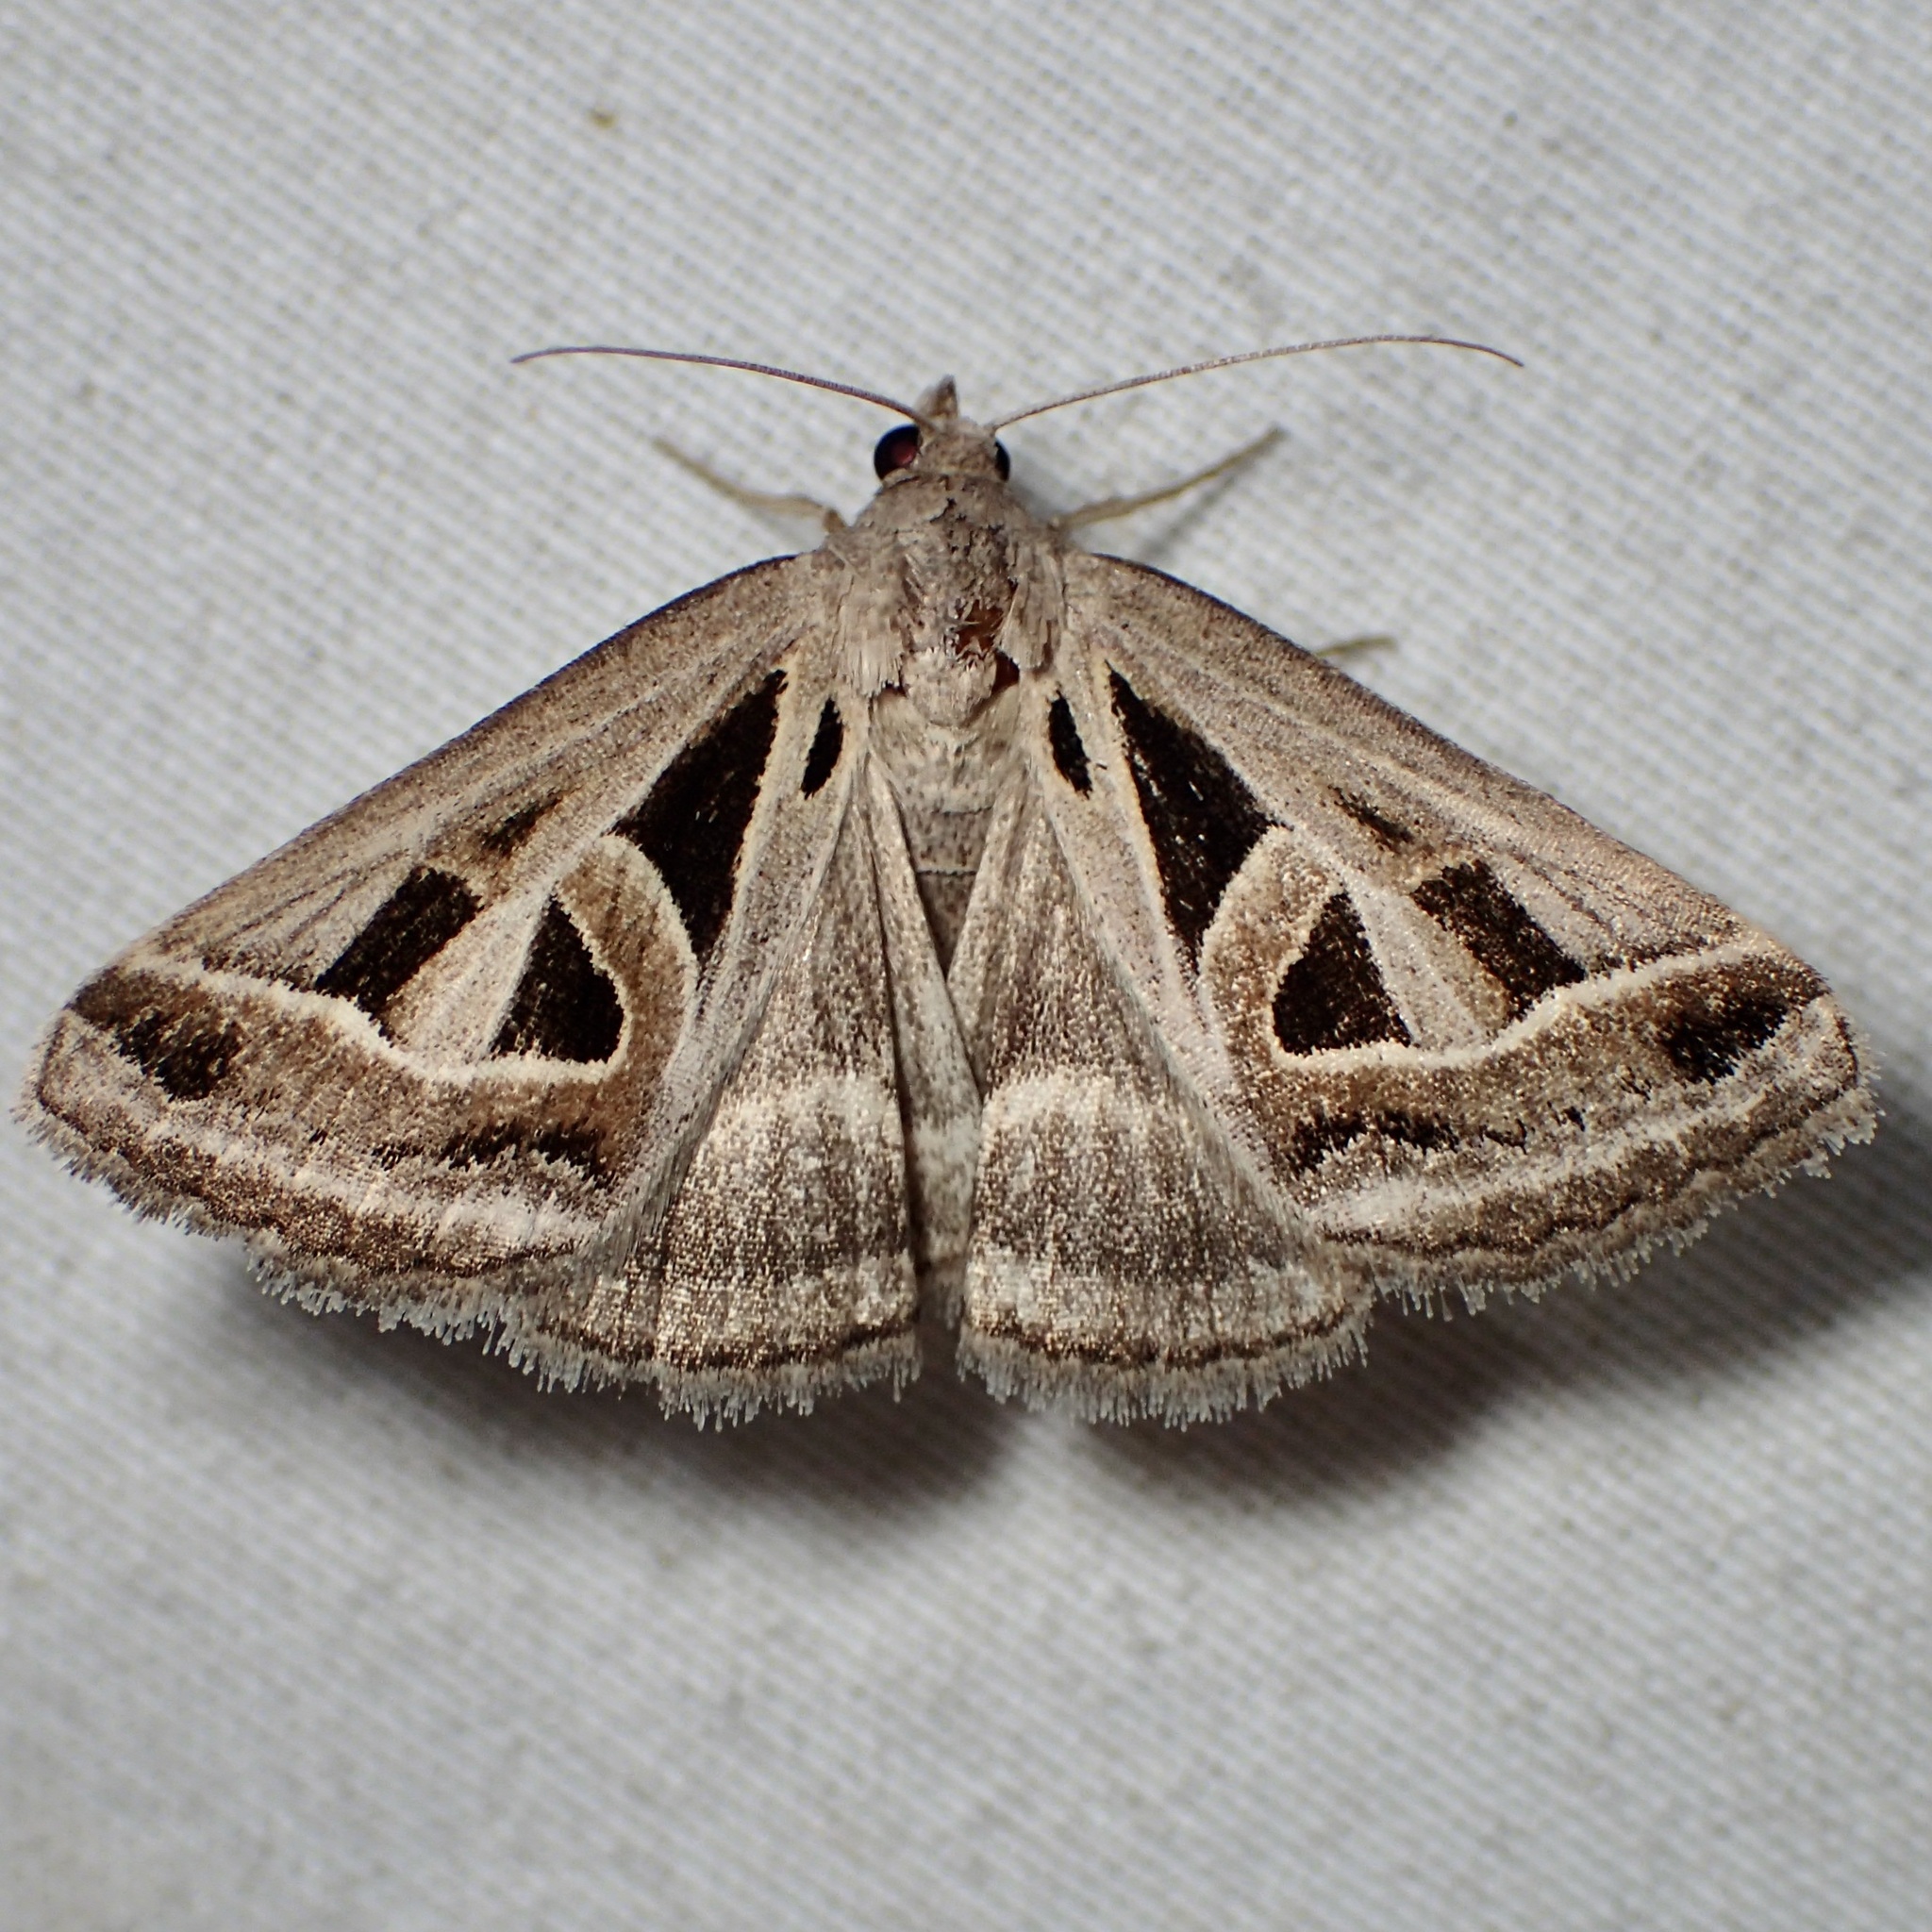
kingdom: Animalia
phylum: Arthropoda
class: Insecta
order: Lepidoptera
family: Erebidae
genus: Callistege
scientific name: Callistege diagonalis
